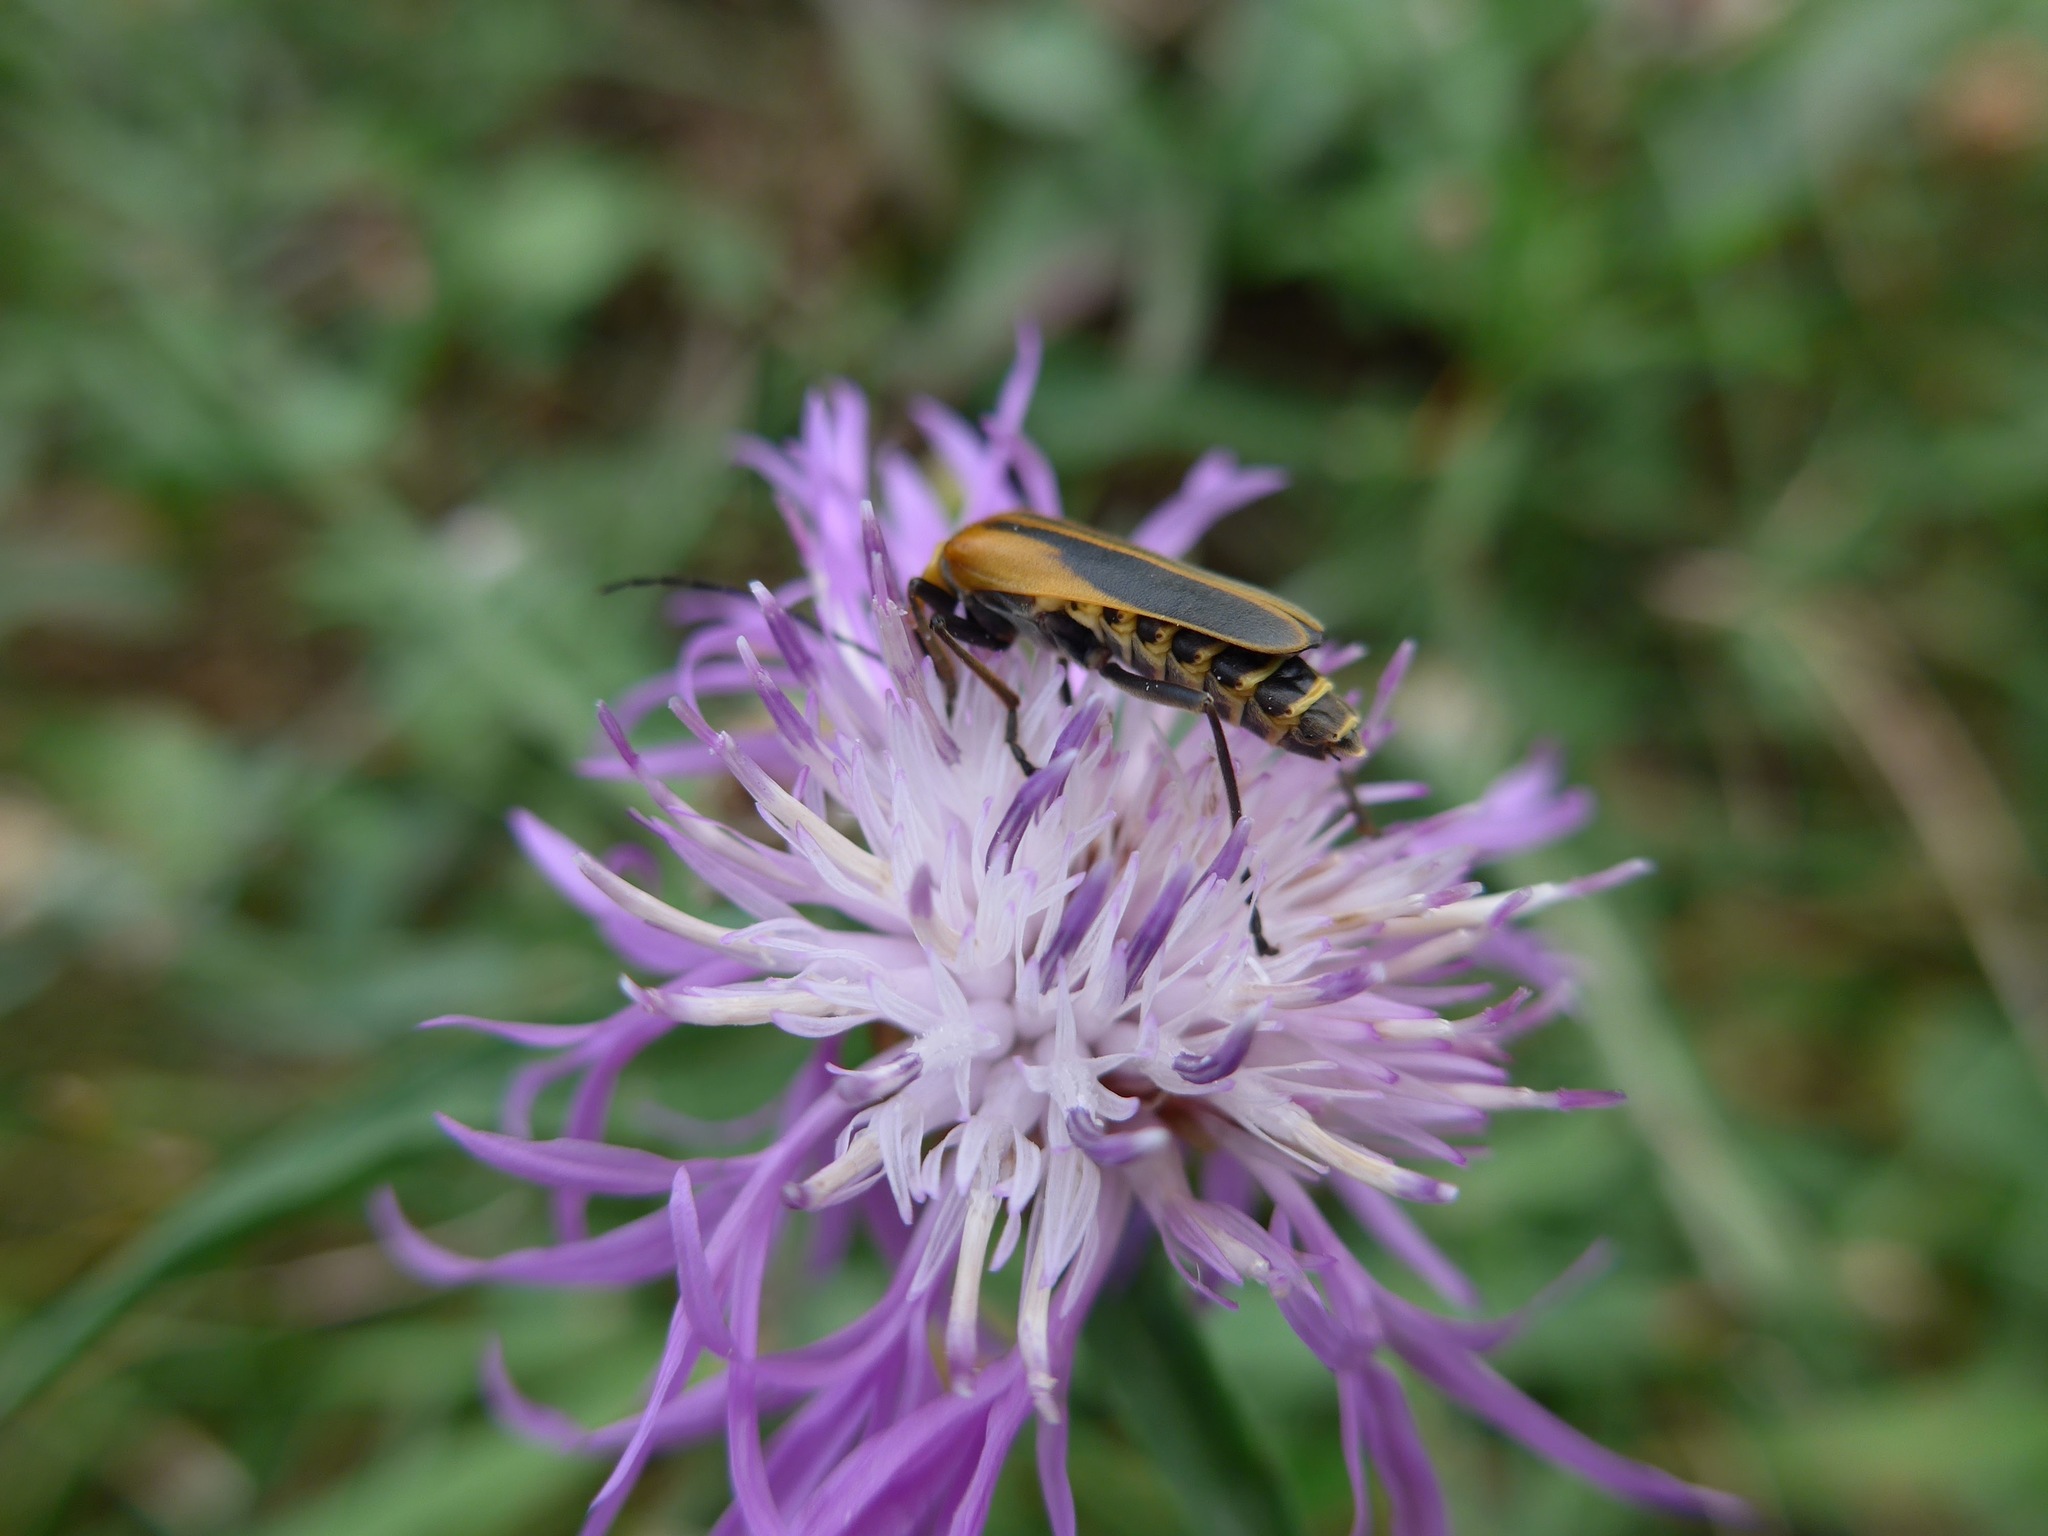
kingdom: Animalia
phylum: Arthropoda
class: Insecta
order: Coleoptera
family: Cantharidae
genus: Chauliognathus
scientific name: Chauliognathus pensylvanicus
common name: Goldenrod soldier beetle
